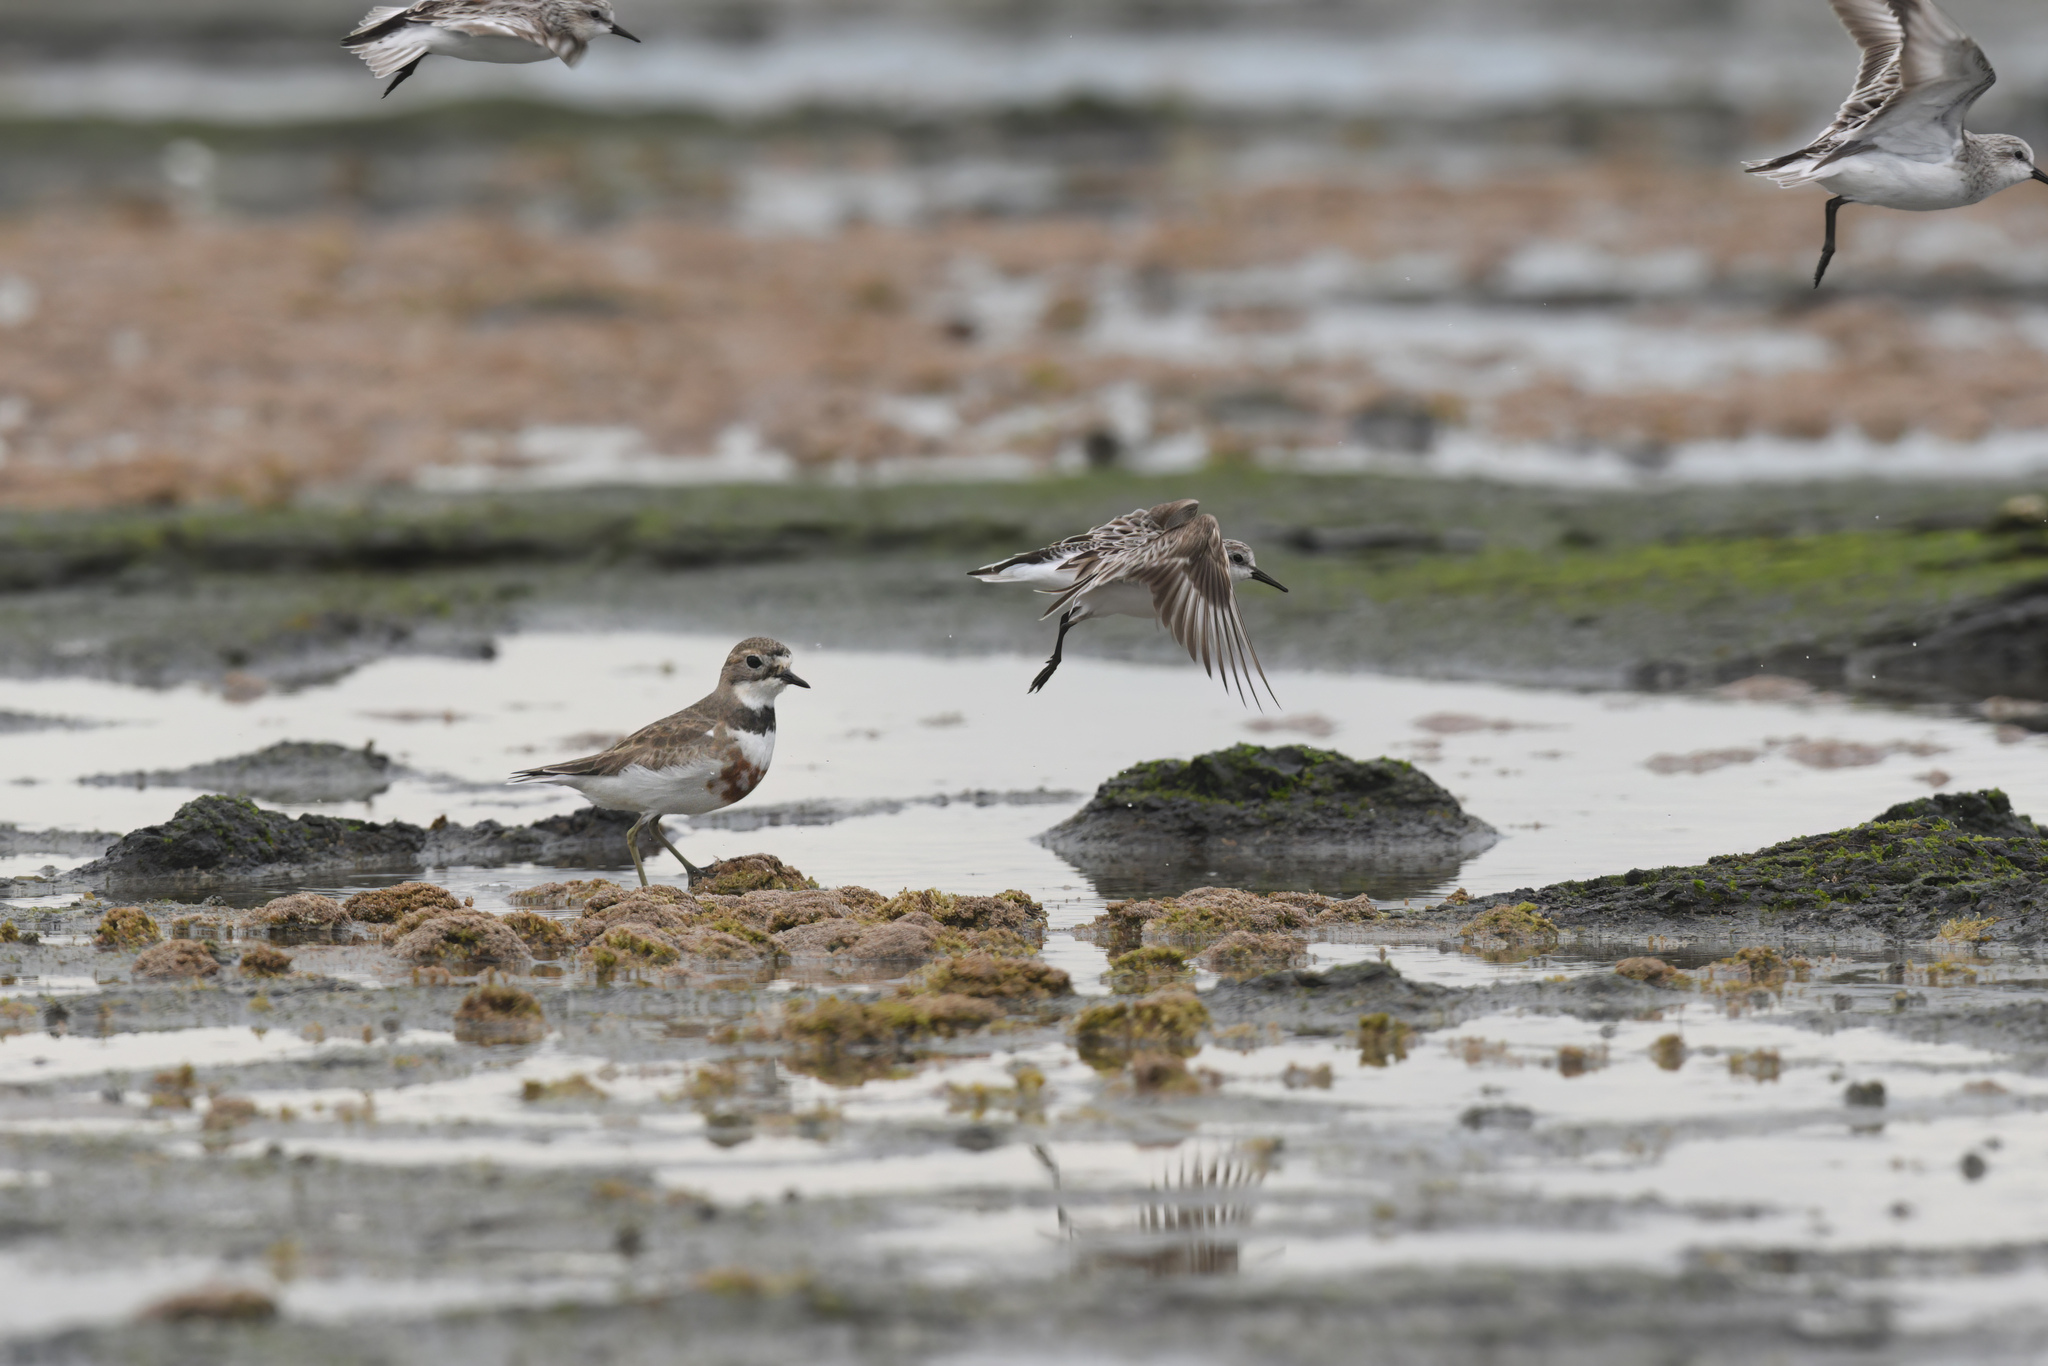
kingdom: Animalia
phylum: Chordata
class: Aves
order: Charadriiformes
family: Charadriidae
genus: Anarhynchus
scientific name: Anarhynchus
